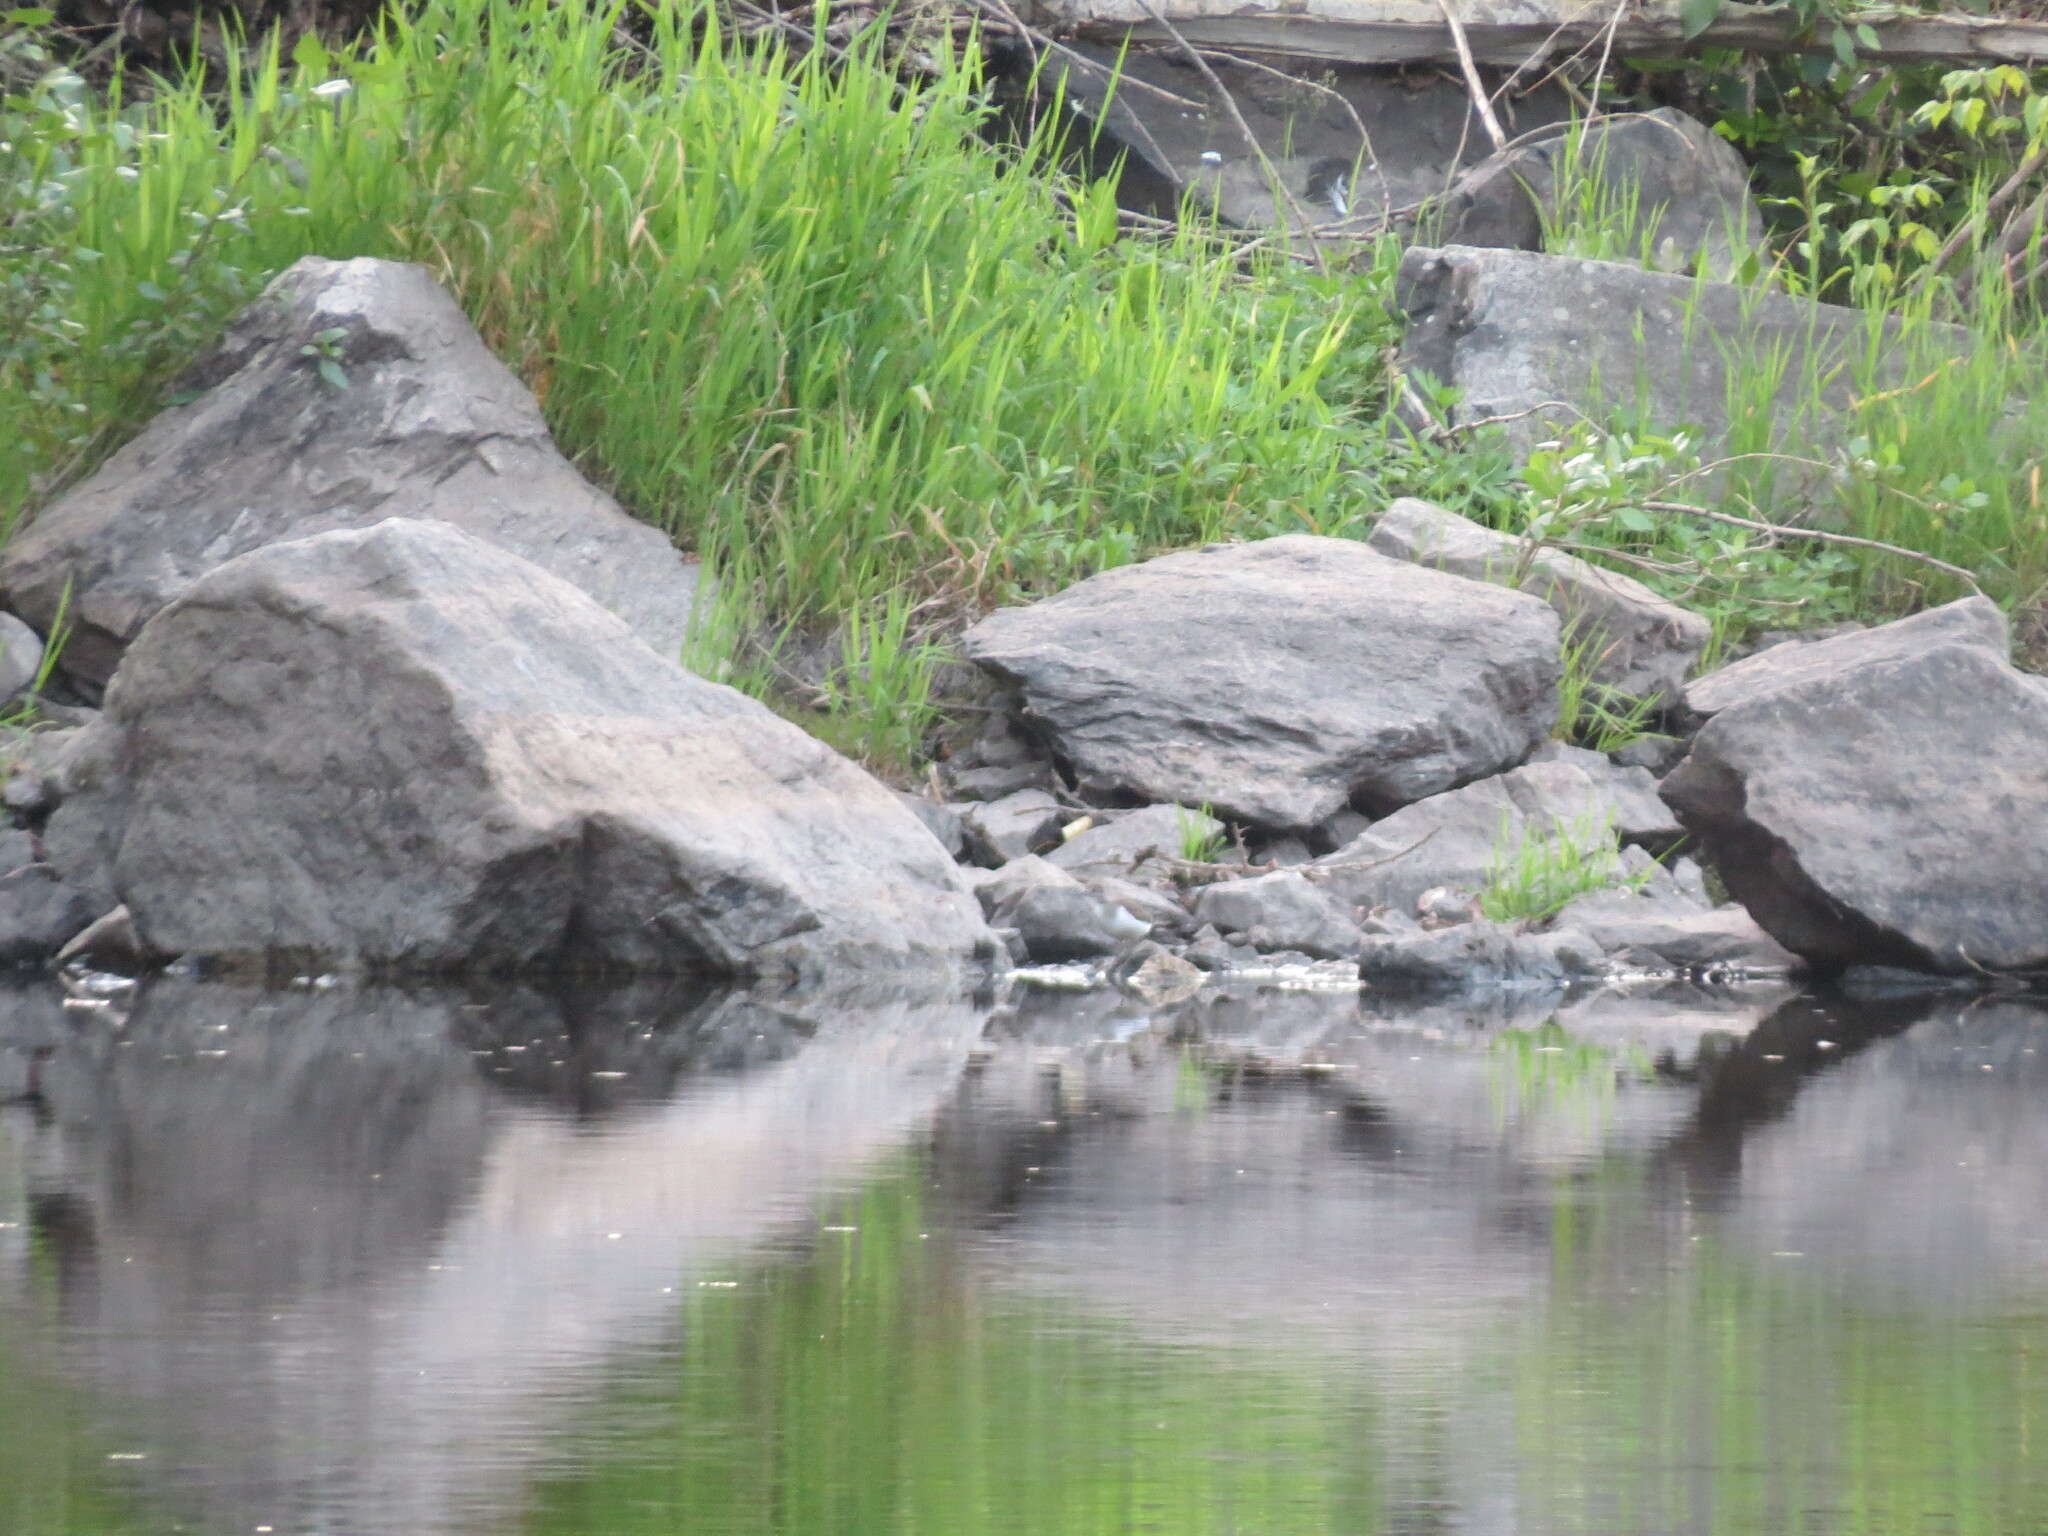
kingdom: Animalia
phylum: Chordata
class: Aves
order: Charadriiformes
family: Scolopacidae
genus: Actitis
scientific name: Actitis hypoleucos
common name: Common sandpiper
